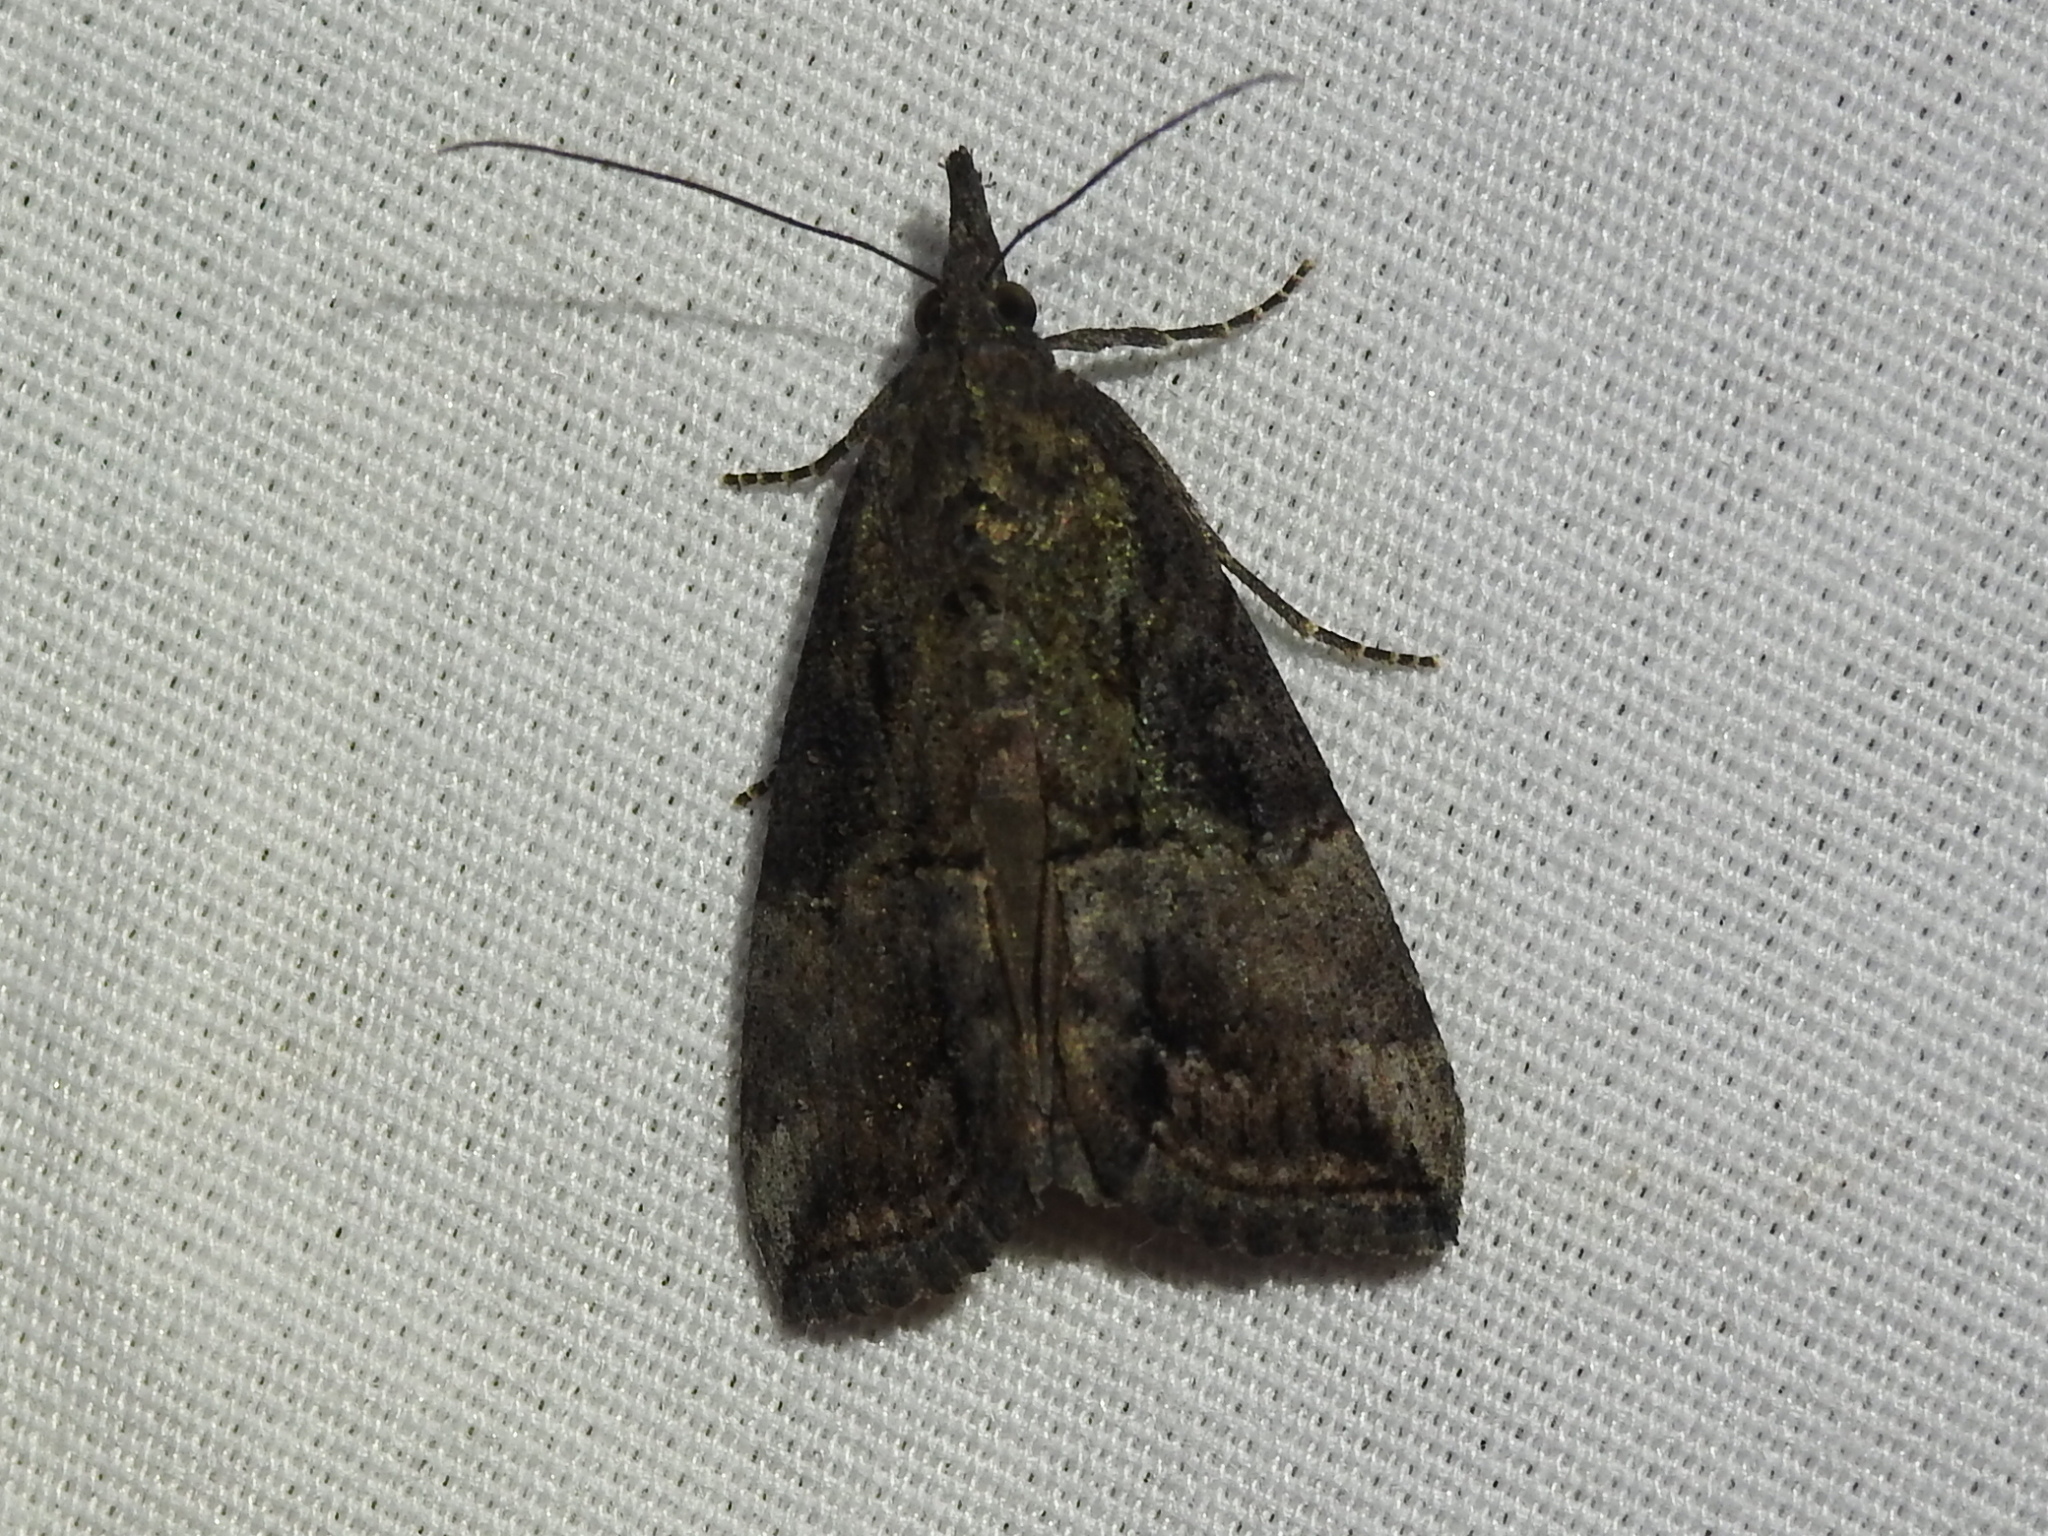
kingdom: Animalia
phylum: Arthropoda
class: Insecta
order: Lepidoptera
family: Erebidae
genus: Hypena
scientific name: Hypena scabra
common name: Green cloverworm
